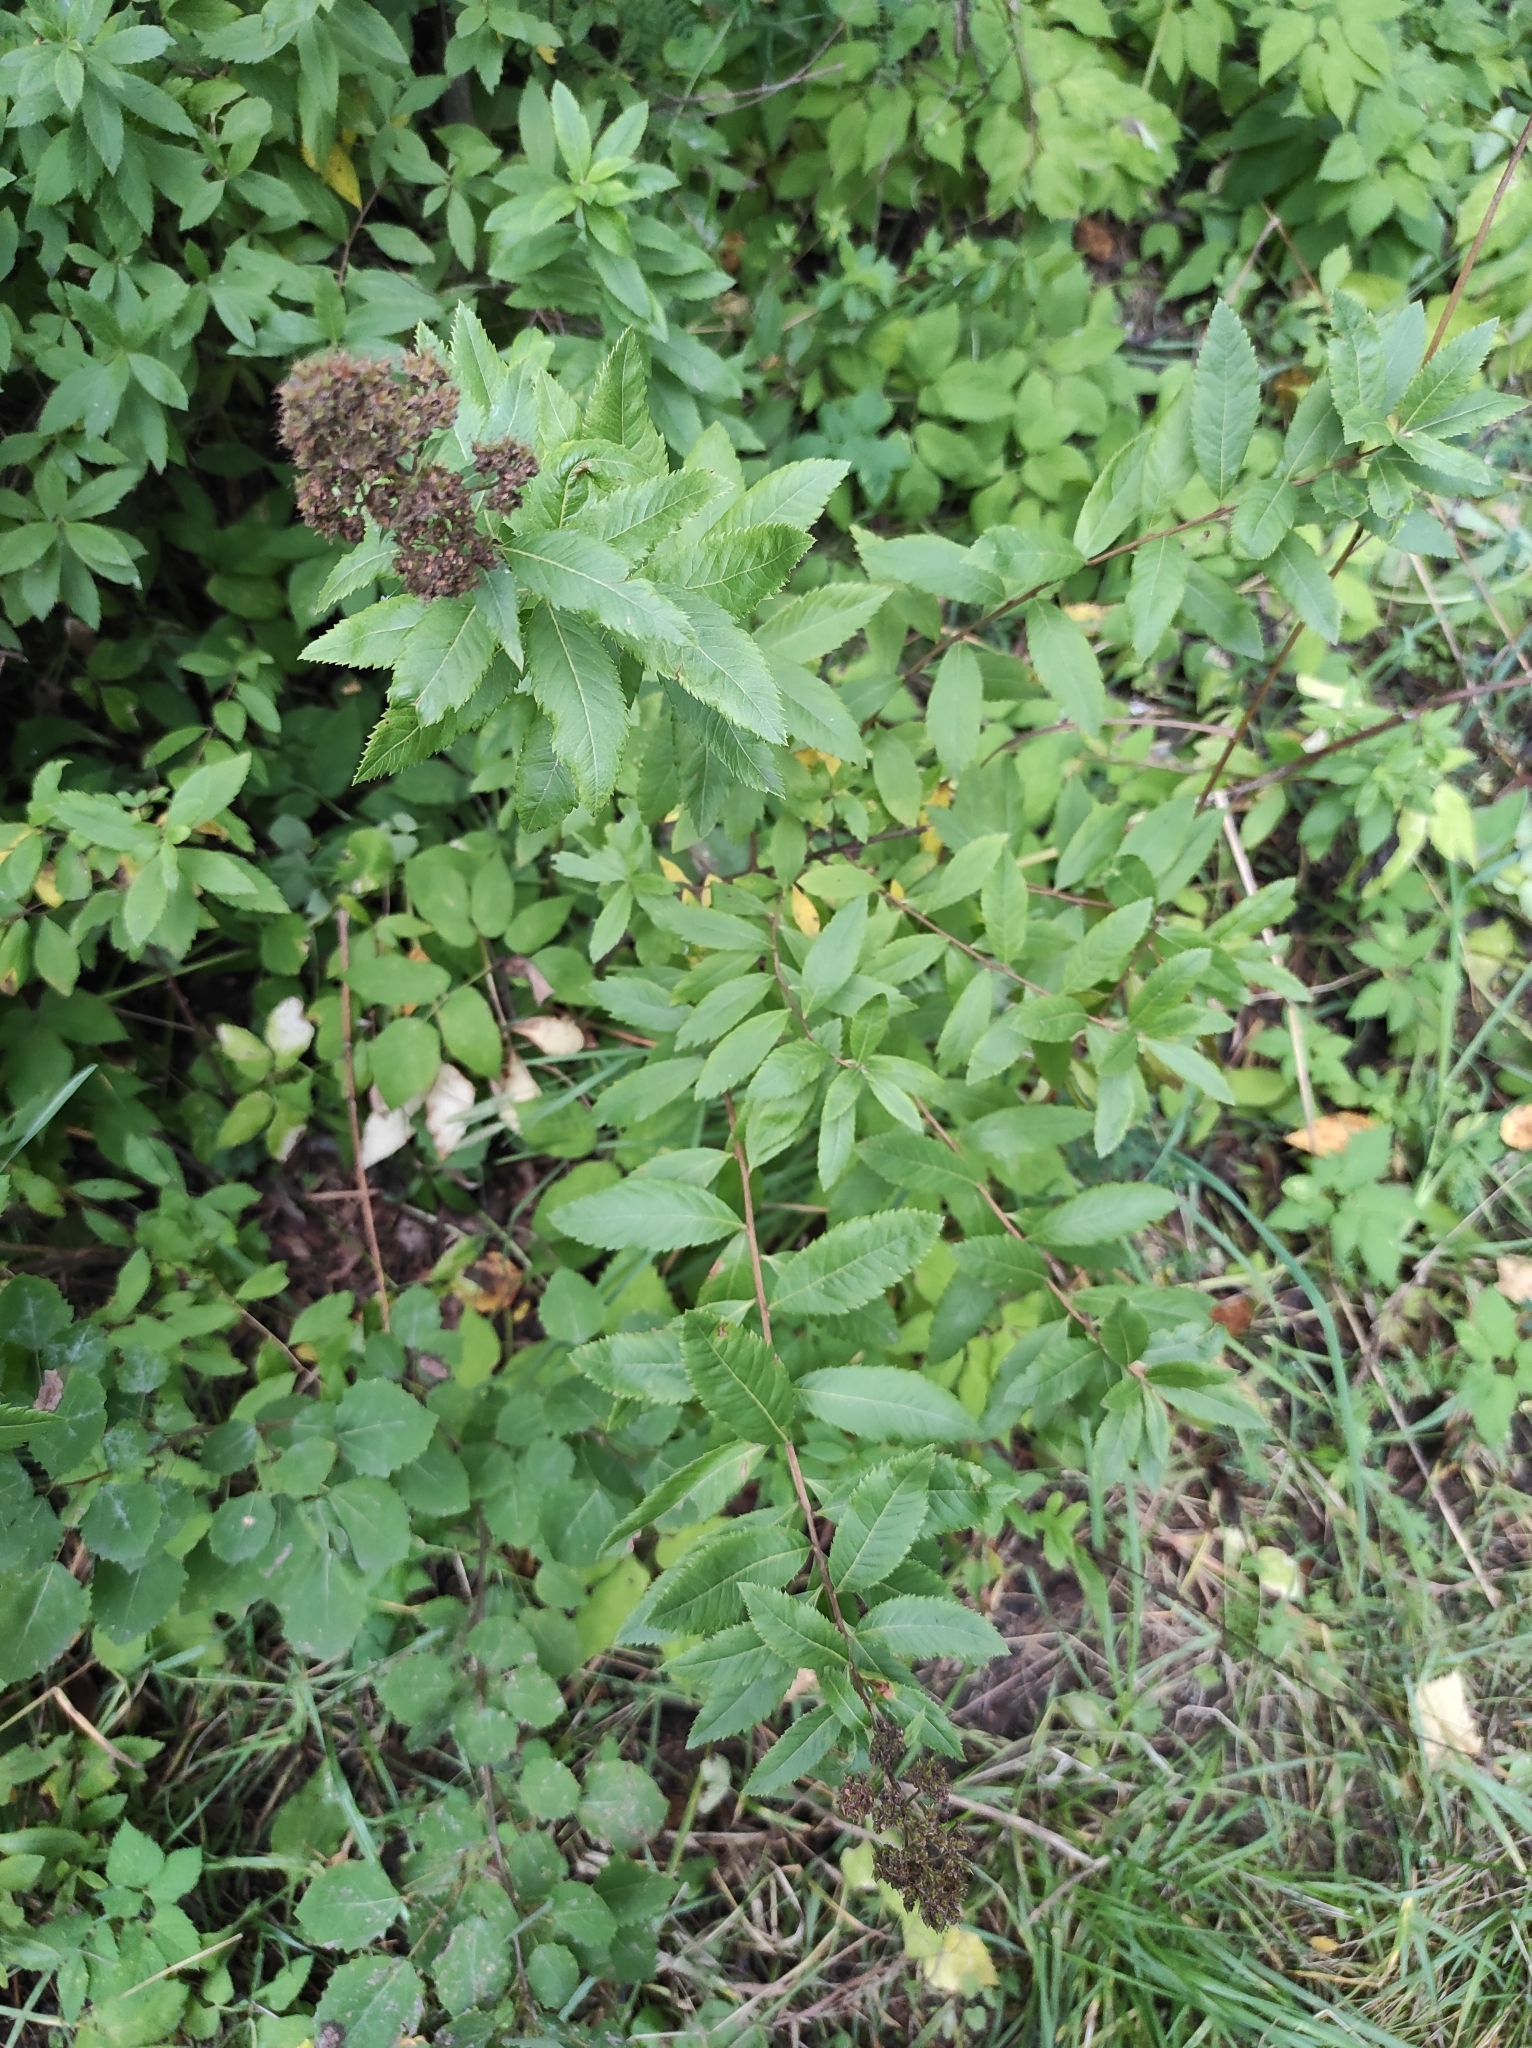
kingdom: Plantae
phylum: Tracheophyta
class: Magnoliopsida
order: Rosales
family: Rosaceae
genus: Spiraea
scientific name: Spiraea salicifolia
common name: Bridewort
